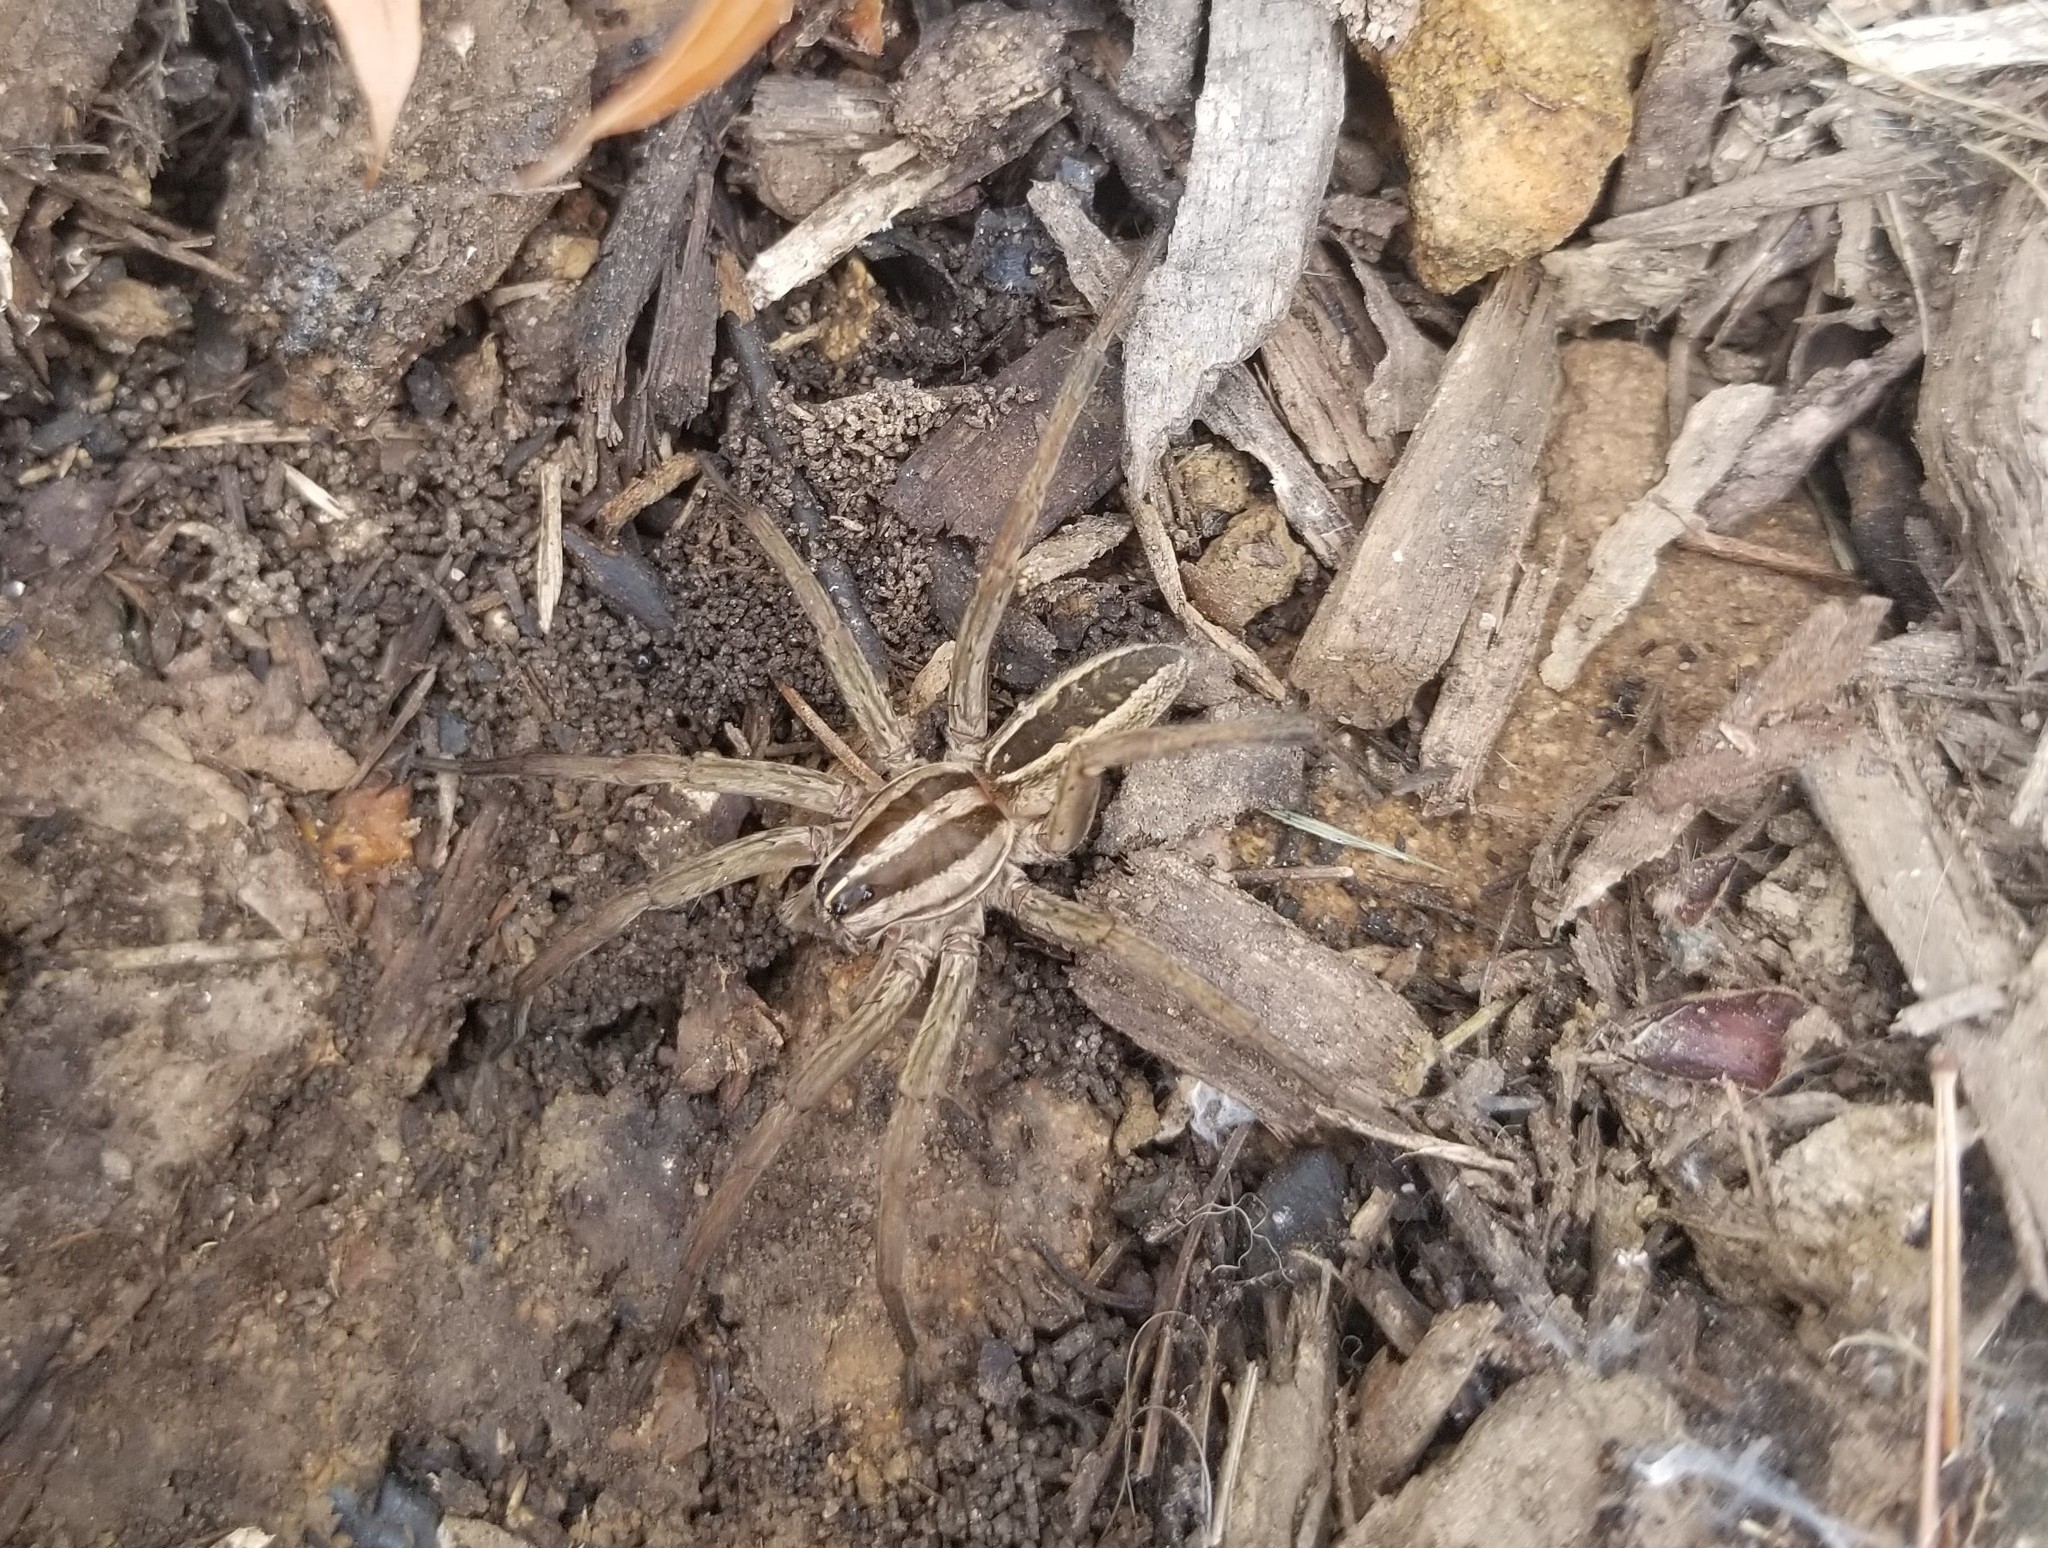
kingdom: Animalia
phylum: Arthropoda
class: Arachnida
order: Araneae
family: Lycosidae
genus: Rabidosa
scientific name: Rabidosa rabida
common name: Rabid wolf spider
